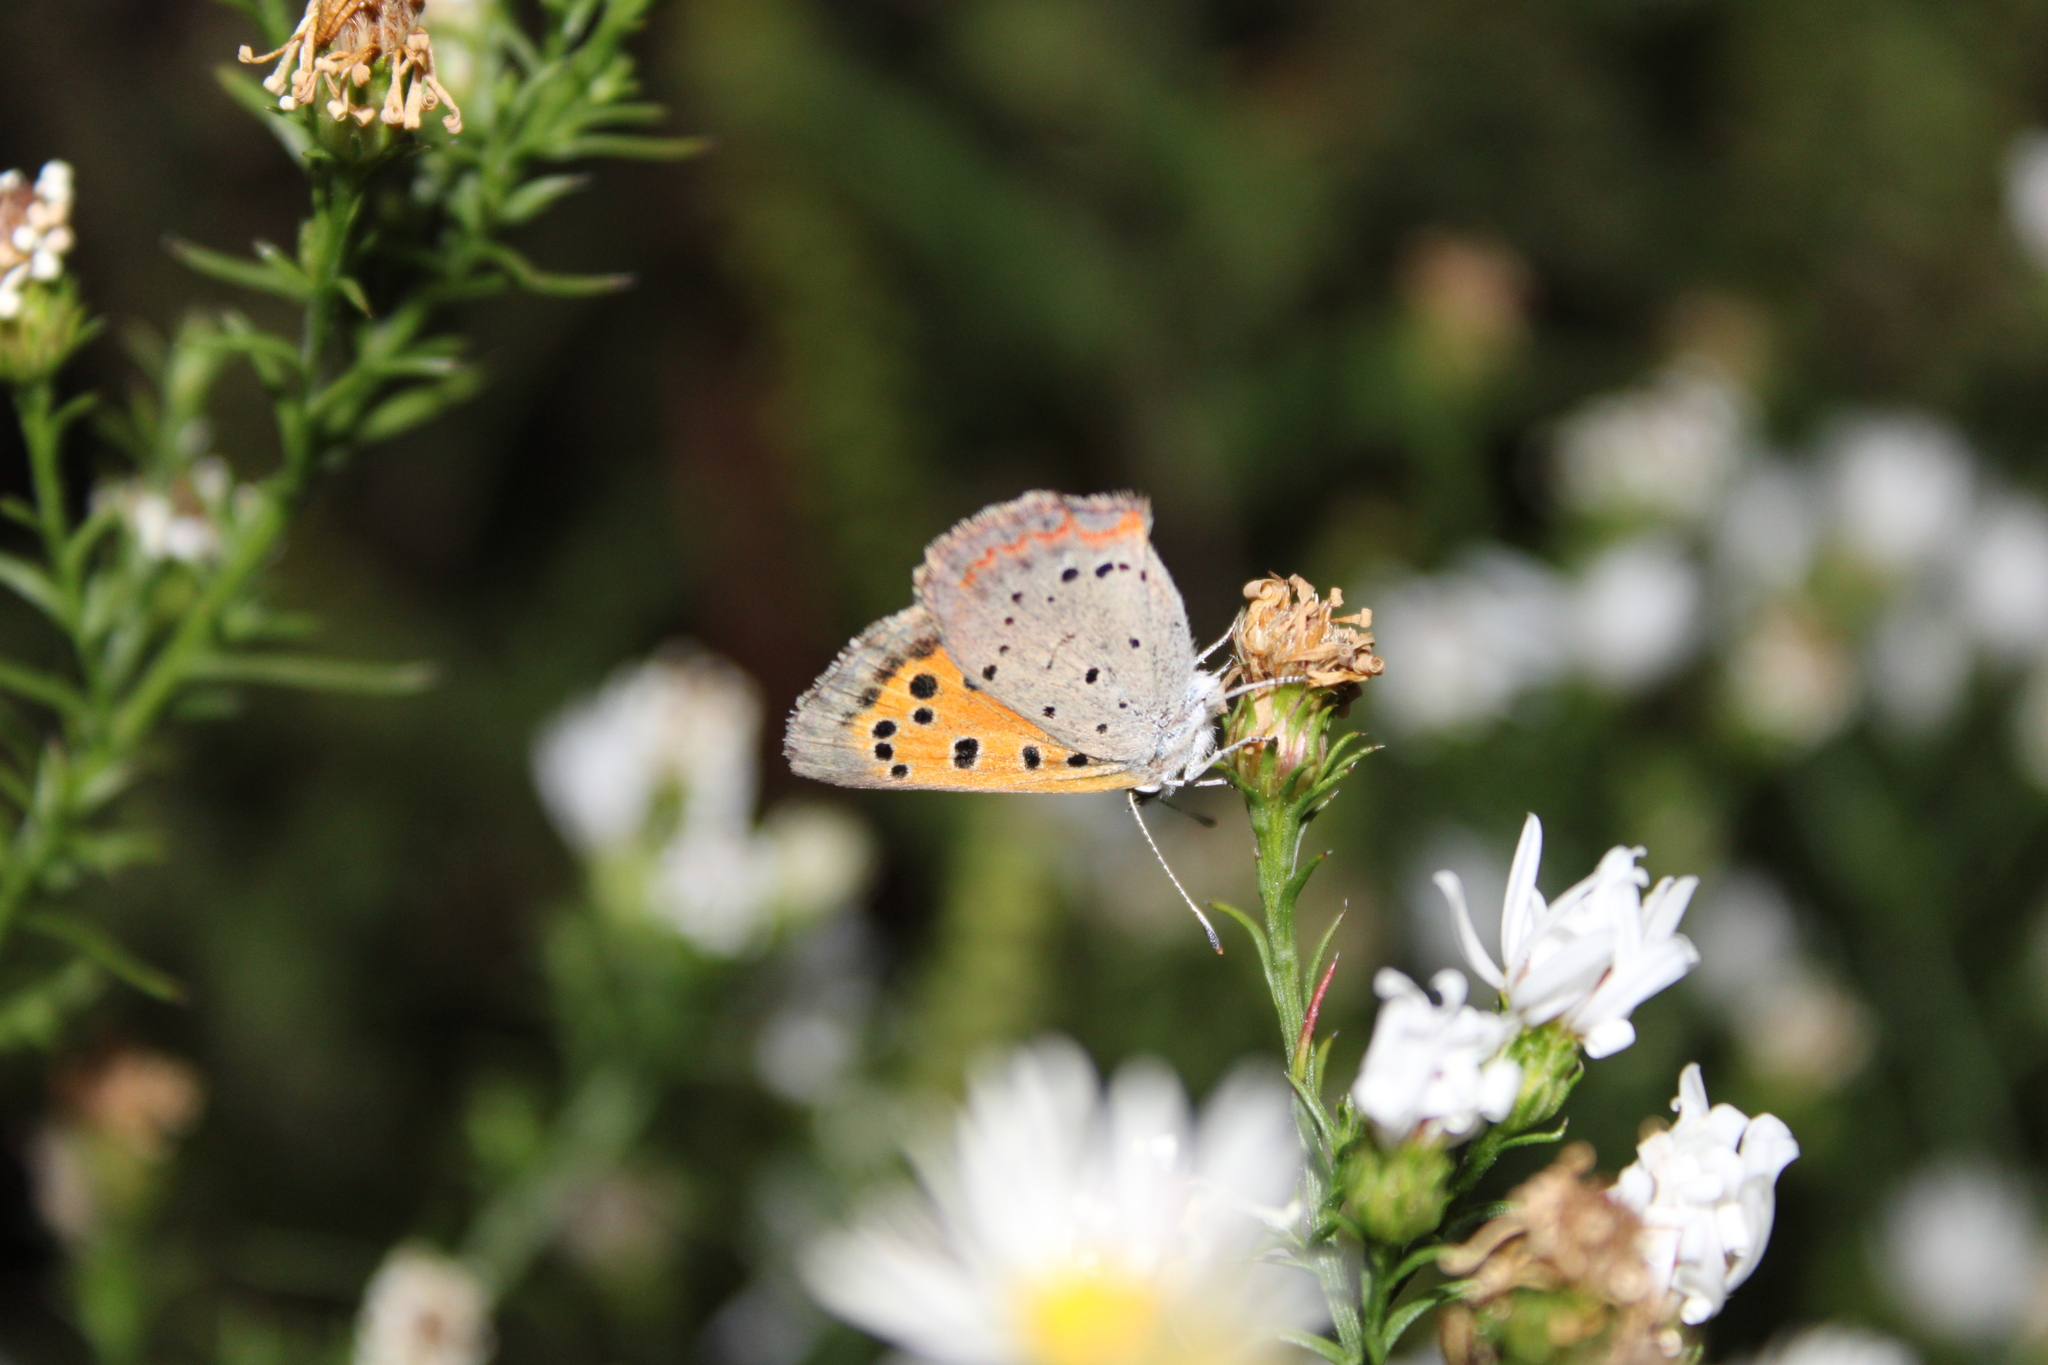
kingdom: Animalia
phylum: Arthropoda
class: Insecta
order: Lepidoptera
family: Lycaenidae
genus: Lycaena
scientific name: Lycaena hypophlaeas
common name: American copper
